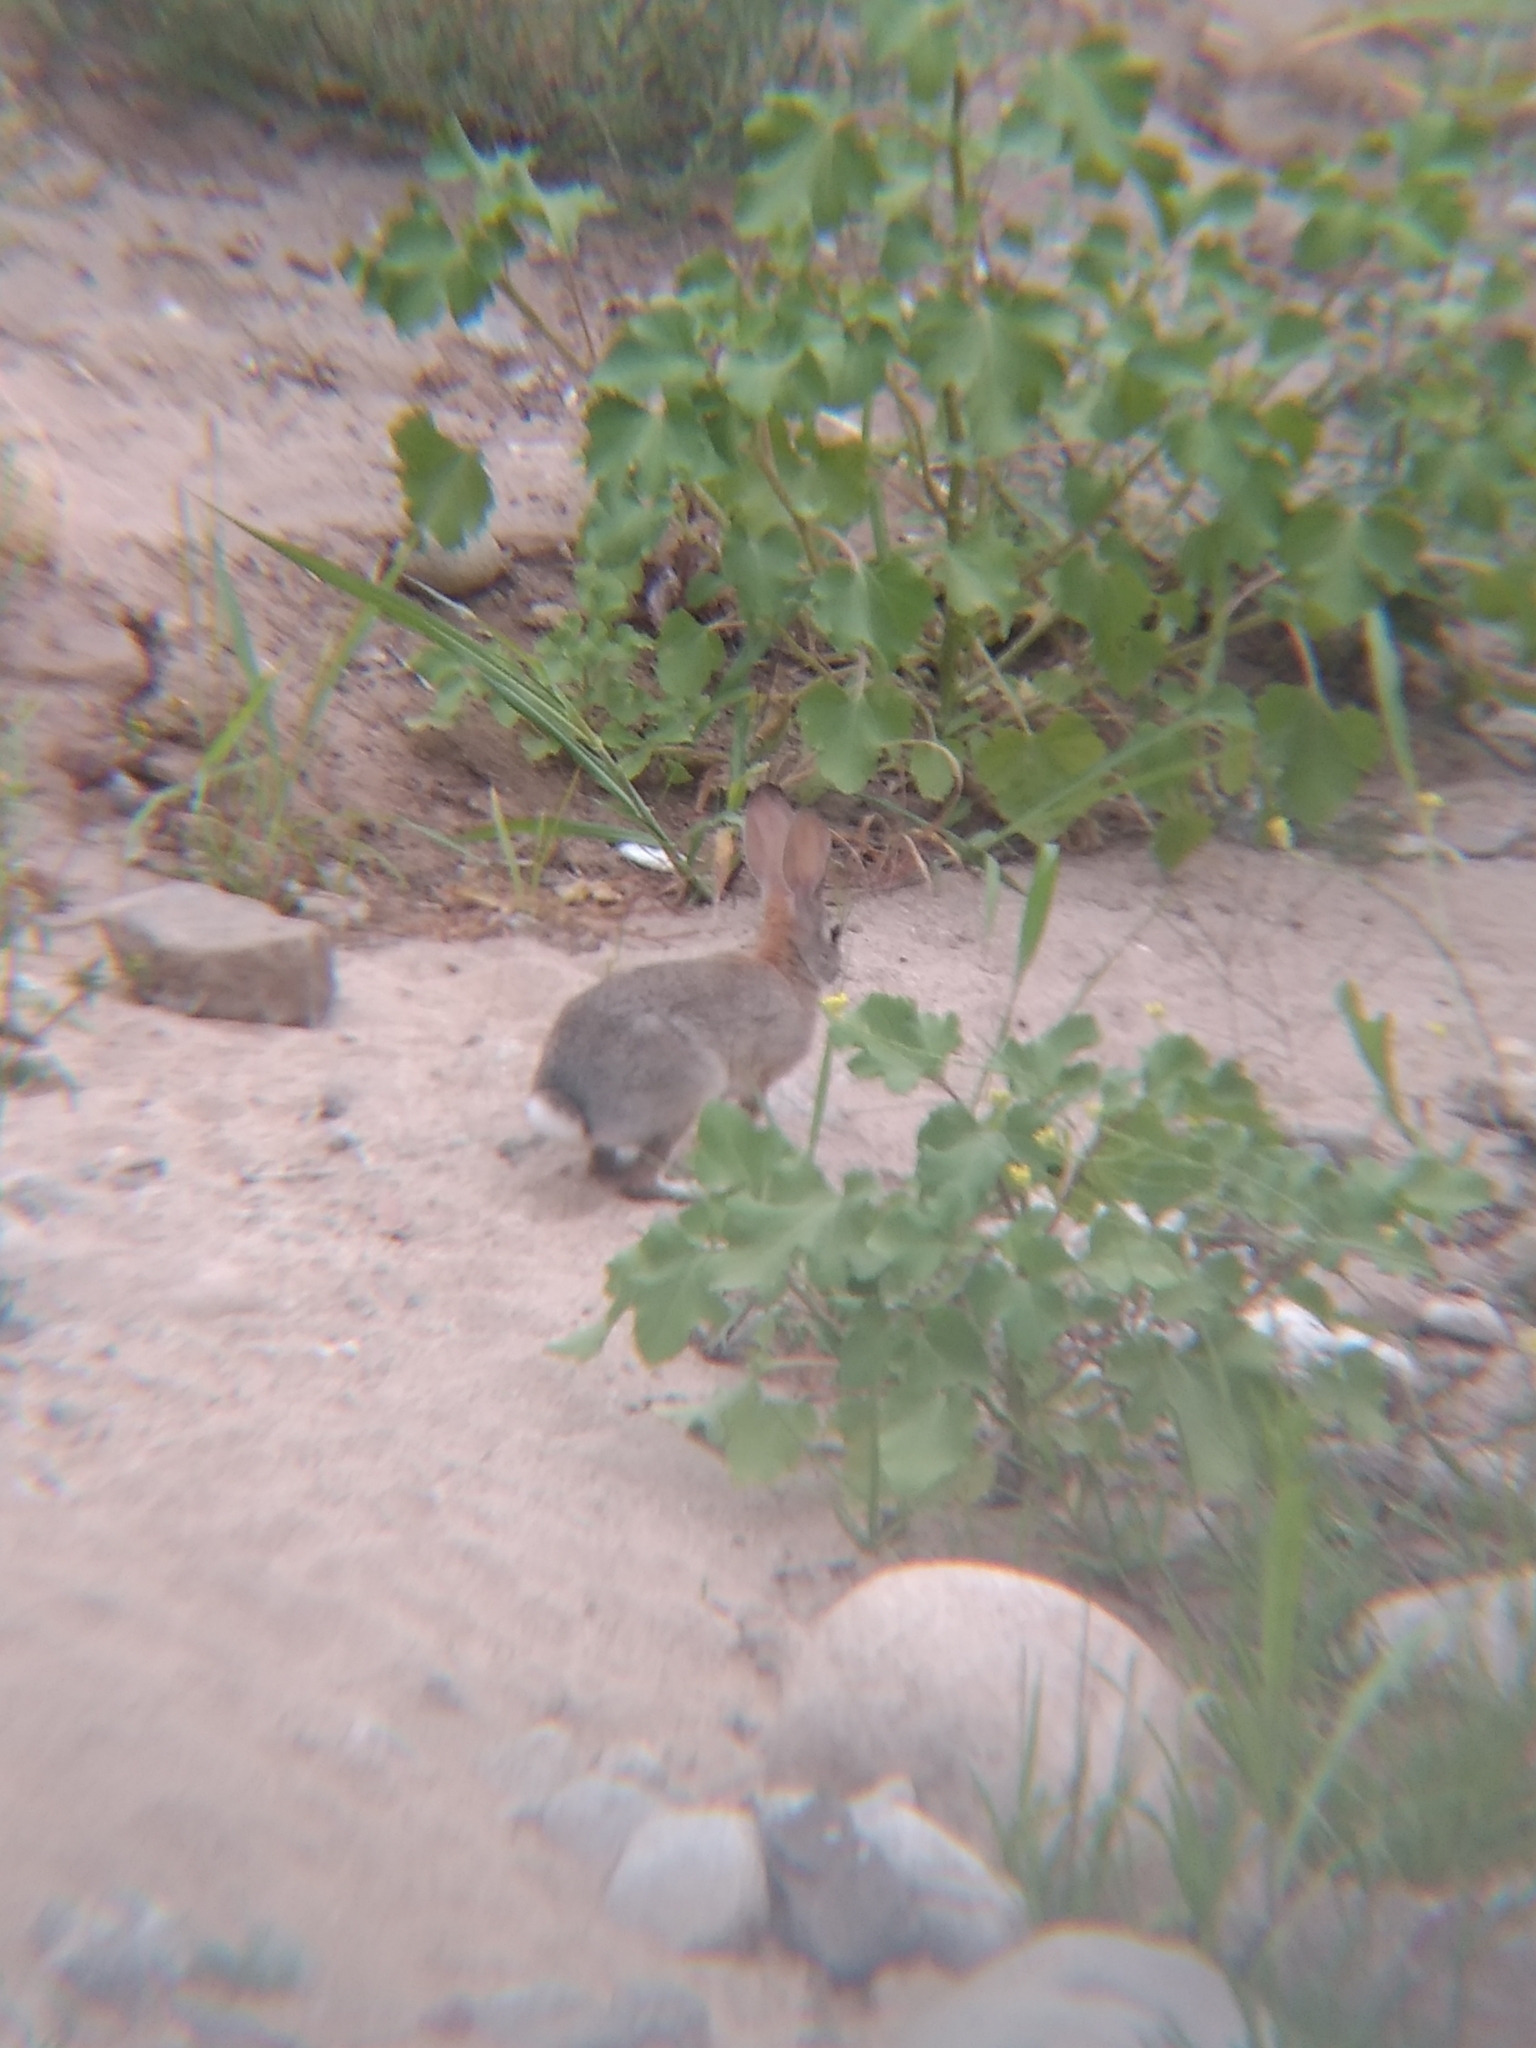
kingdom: Animalia
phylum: Chordata
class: Mammalia
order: Lagomorpha
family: Leporidae
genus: Sylvilagus
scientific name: Sylvilagus audubonii
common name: Desert cottontail
